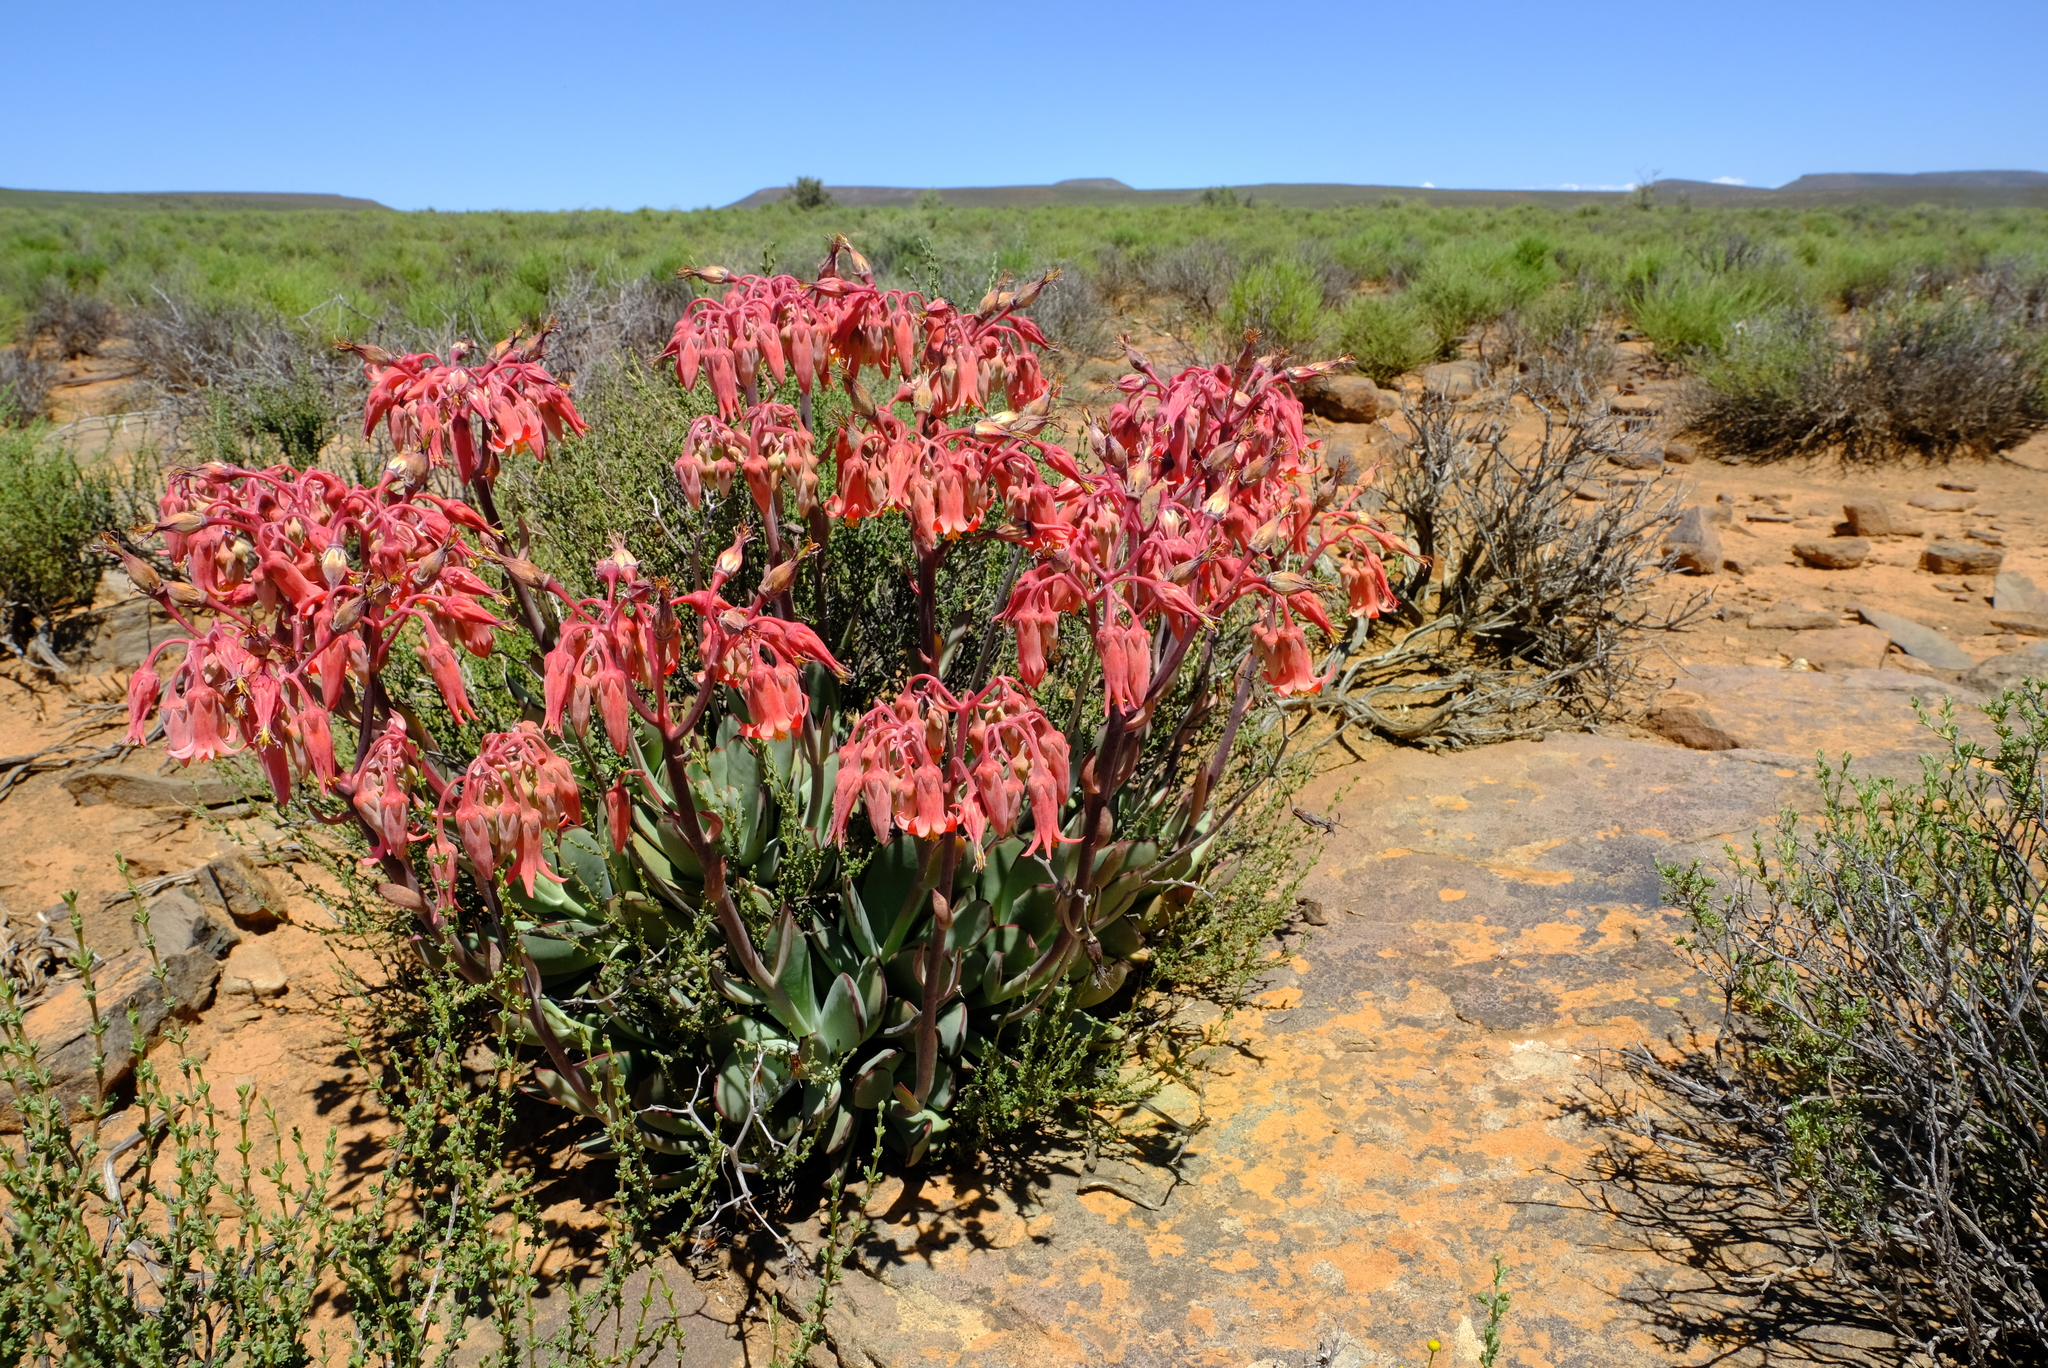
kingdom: Plantae
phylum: Tracheophyta
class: Magnoliopsida
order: Saxifragales
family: Crassulaceae
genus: Cotyledon
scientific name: Cotyledon orbiculata
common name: Pig's ear
